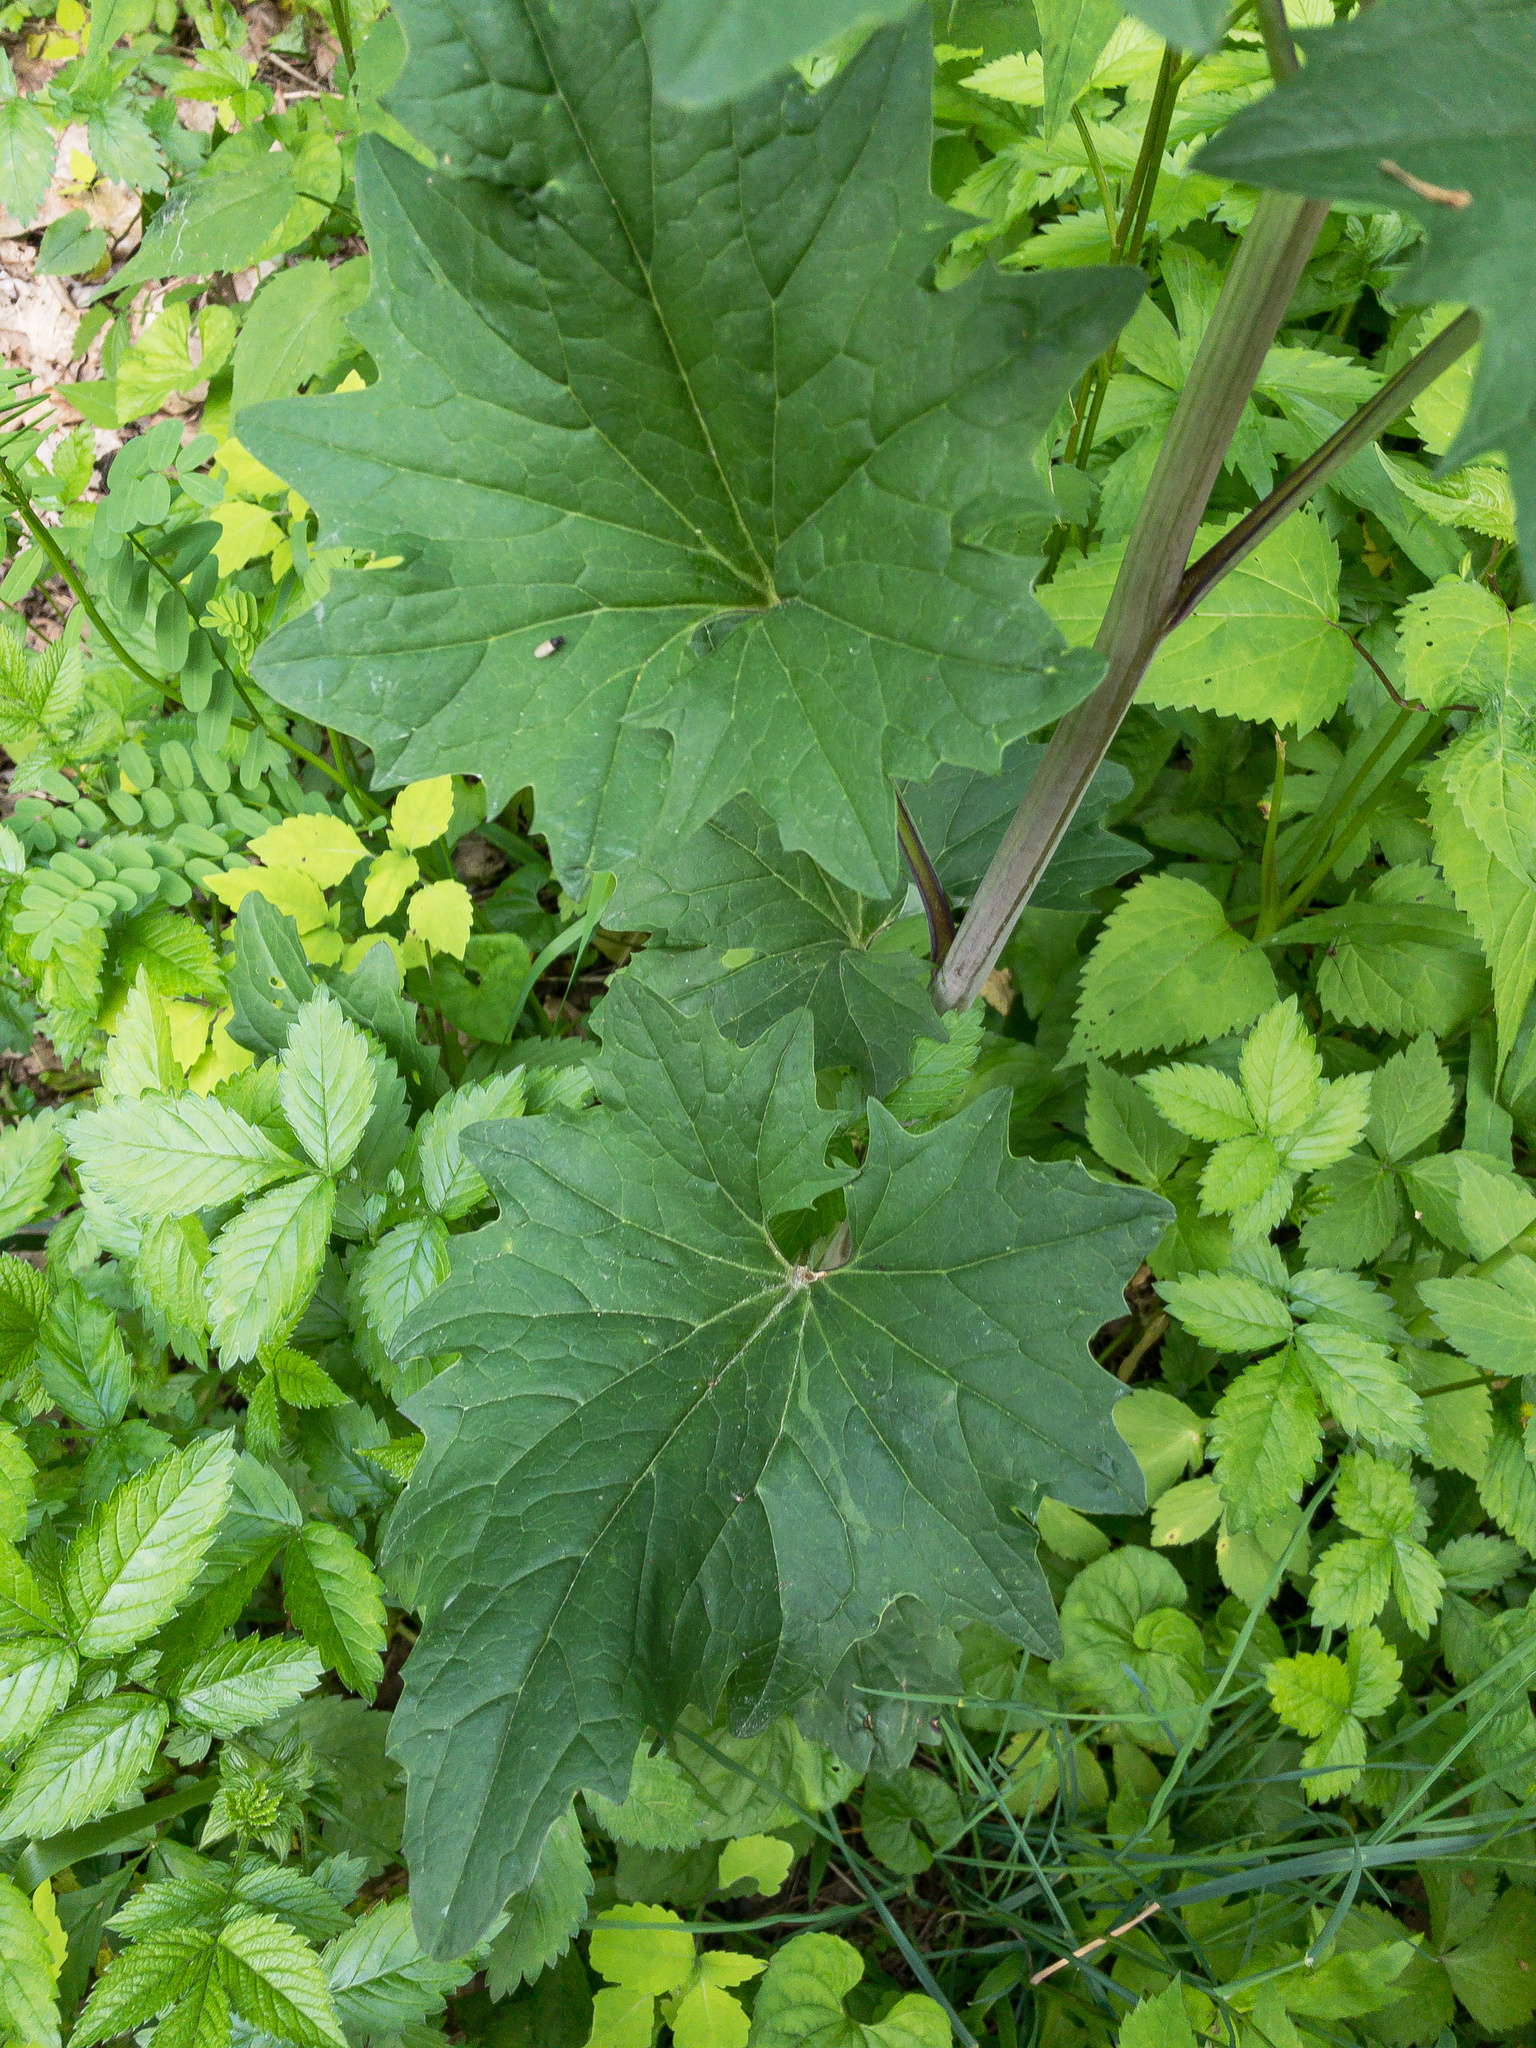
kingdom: Plantae
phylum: Tracheophyta
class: Magnoliopsida
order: Asterales
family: Asteraceae
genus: Arnoglossum
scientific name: Arnoglossum atriplicifolium
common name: Pale indian-plantain
